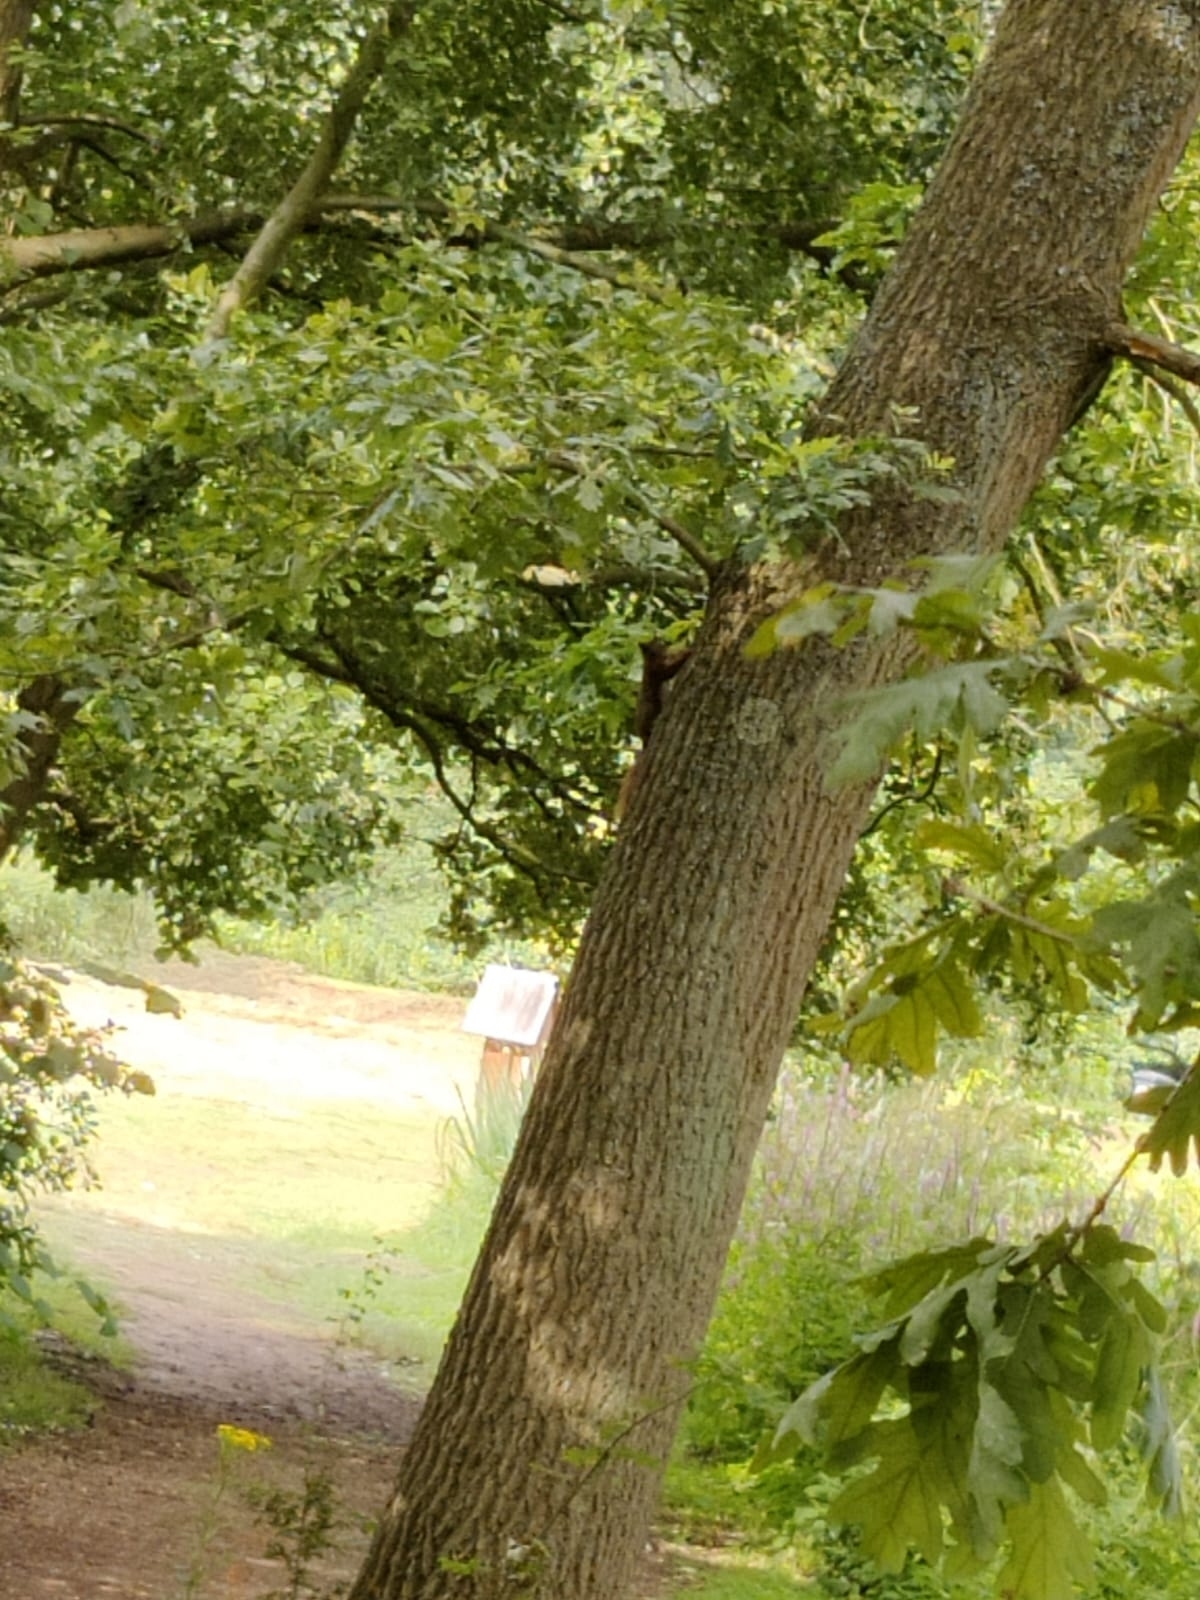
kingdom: Animalia
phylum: Chordata
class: Mammalia
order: Rodentia
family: Sciuridae
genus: Sciurus
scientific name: Sciurus vulgaris
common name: Eurasian red squirrel
